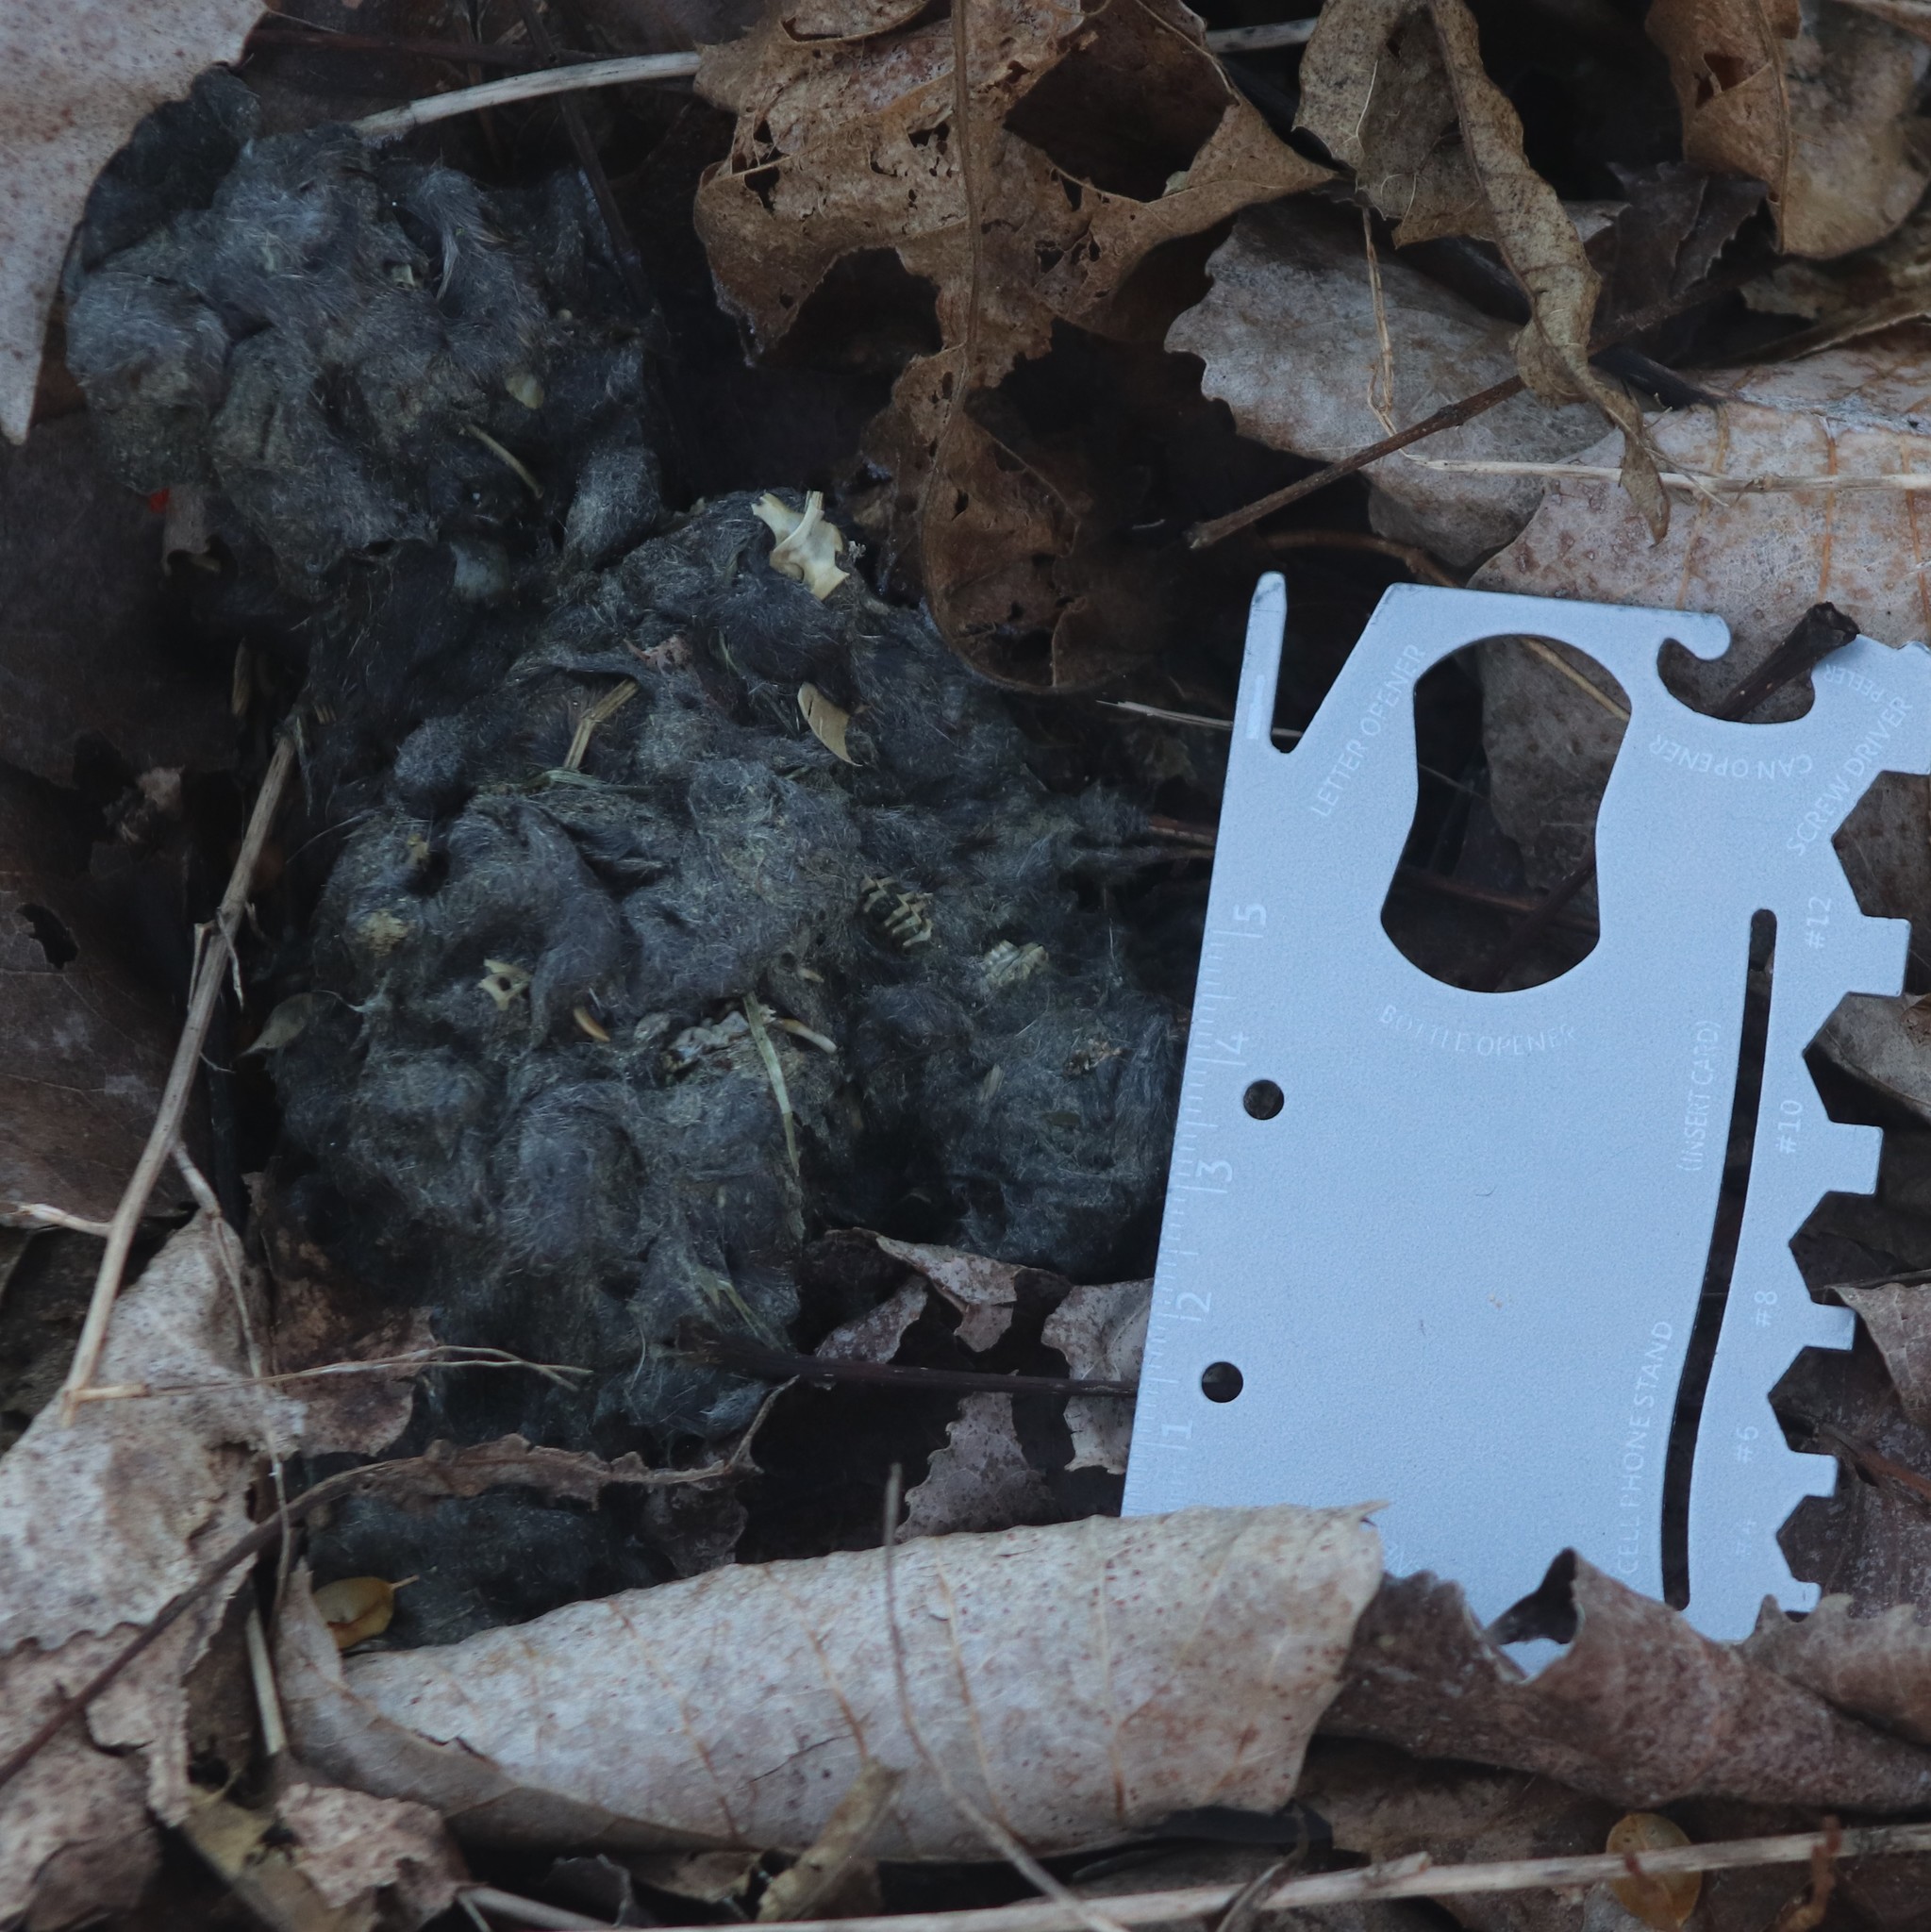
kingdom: Animalia
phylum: Chordata
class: Mammalia
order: Carnivora
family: Canidae
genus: Canis
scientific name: Canis latrans
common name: Coyote
